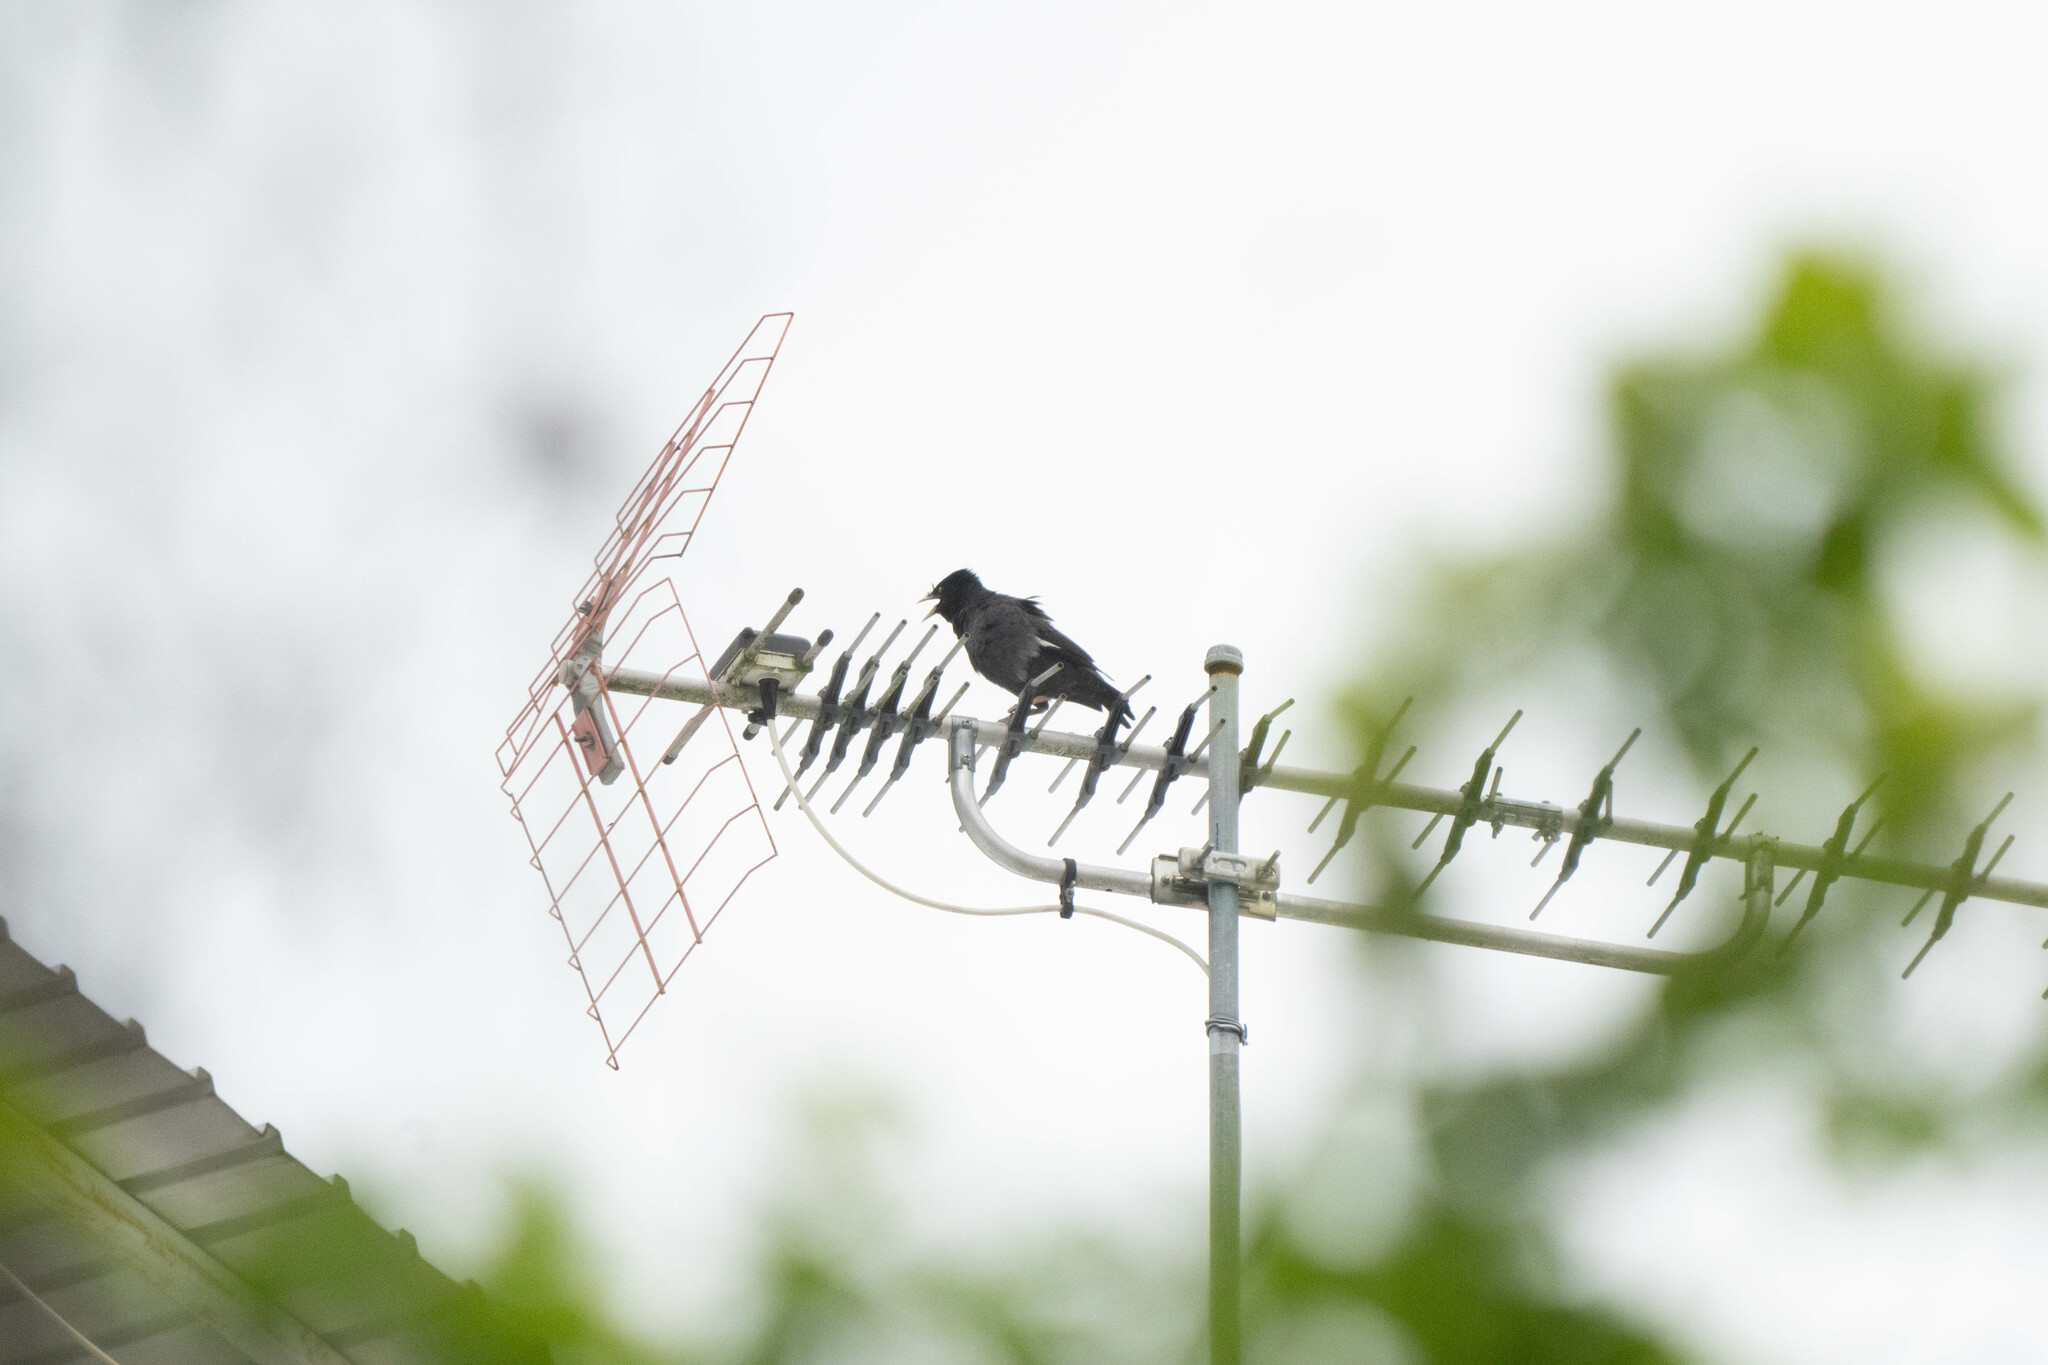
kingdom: Animalia
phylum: Chordata
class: Aves
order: Passeriformes
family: Sturnidae
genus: Acridotheres
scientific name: Acridotheres cristatellus
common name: Crested myna
